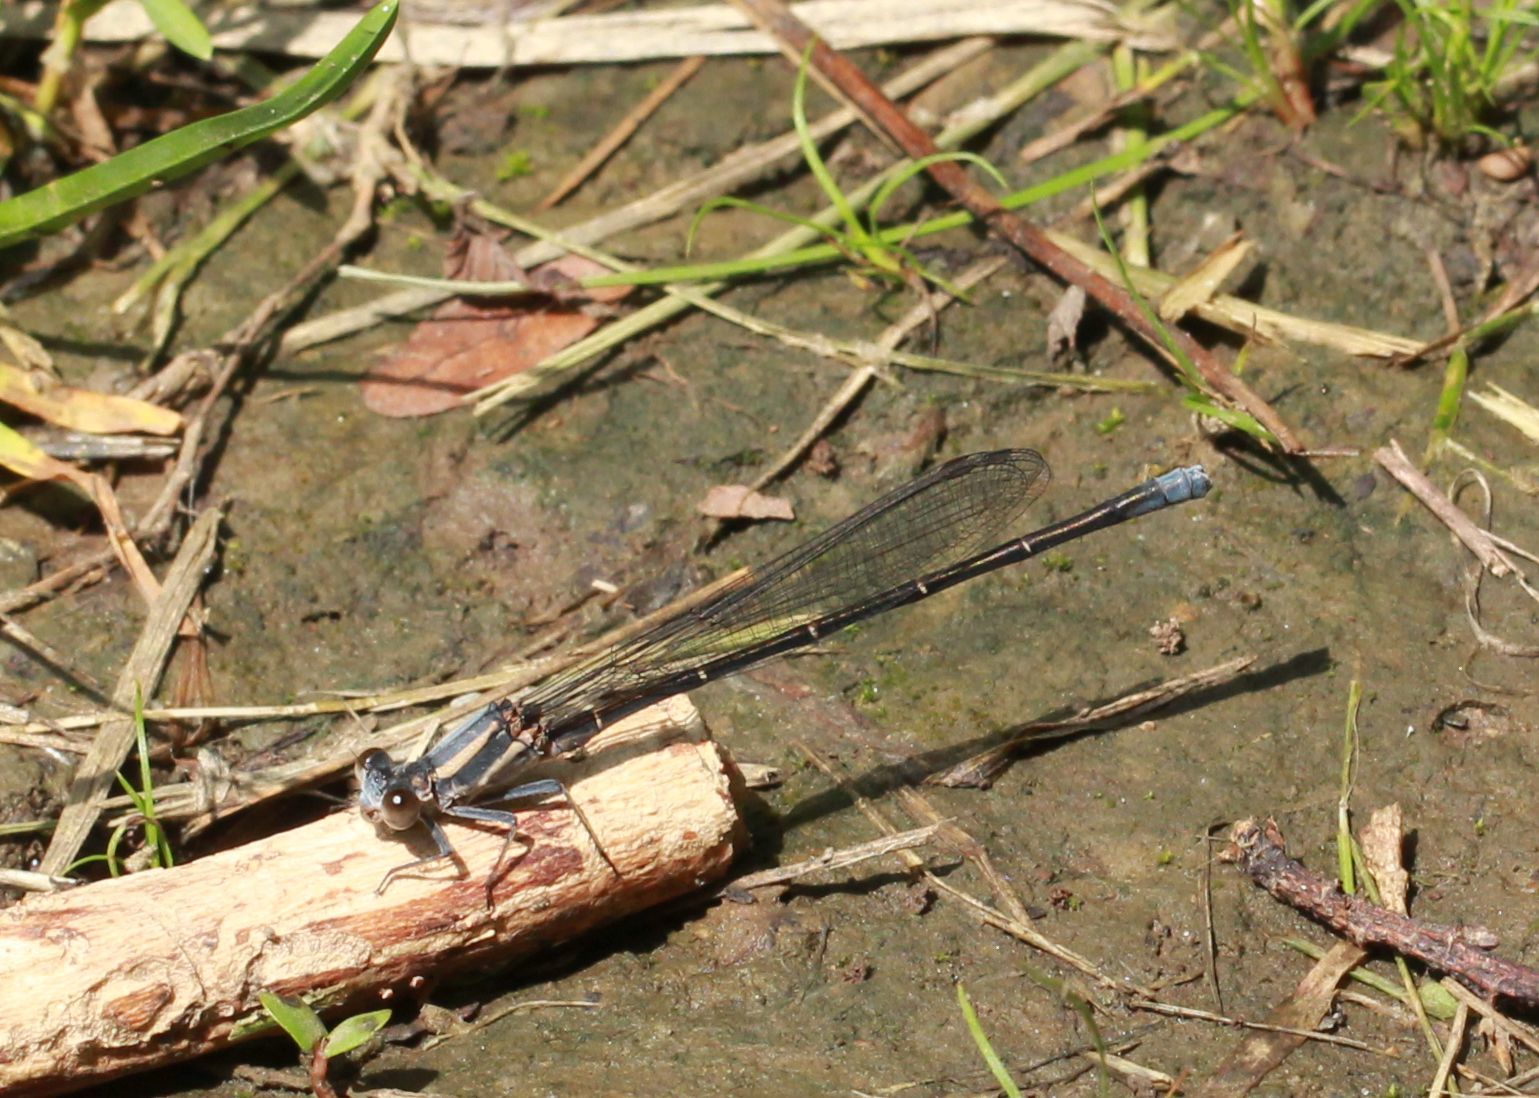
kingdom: Animalia
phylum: Arthropoda
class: Insecta
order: Odonata
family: Coenagrionidae
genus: Argia
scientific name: Argia moesta
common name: Powdered dancer
